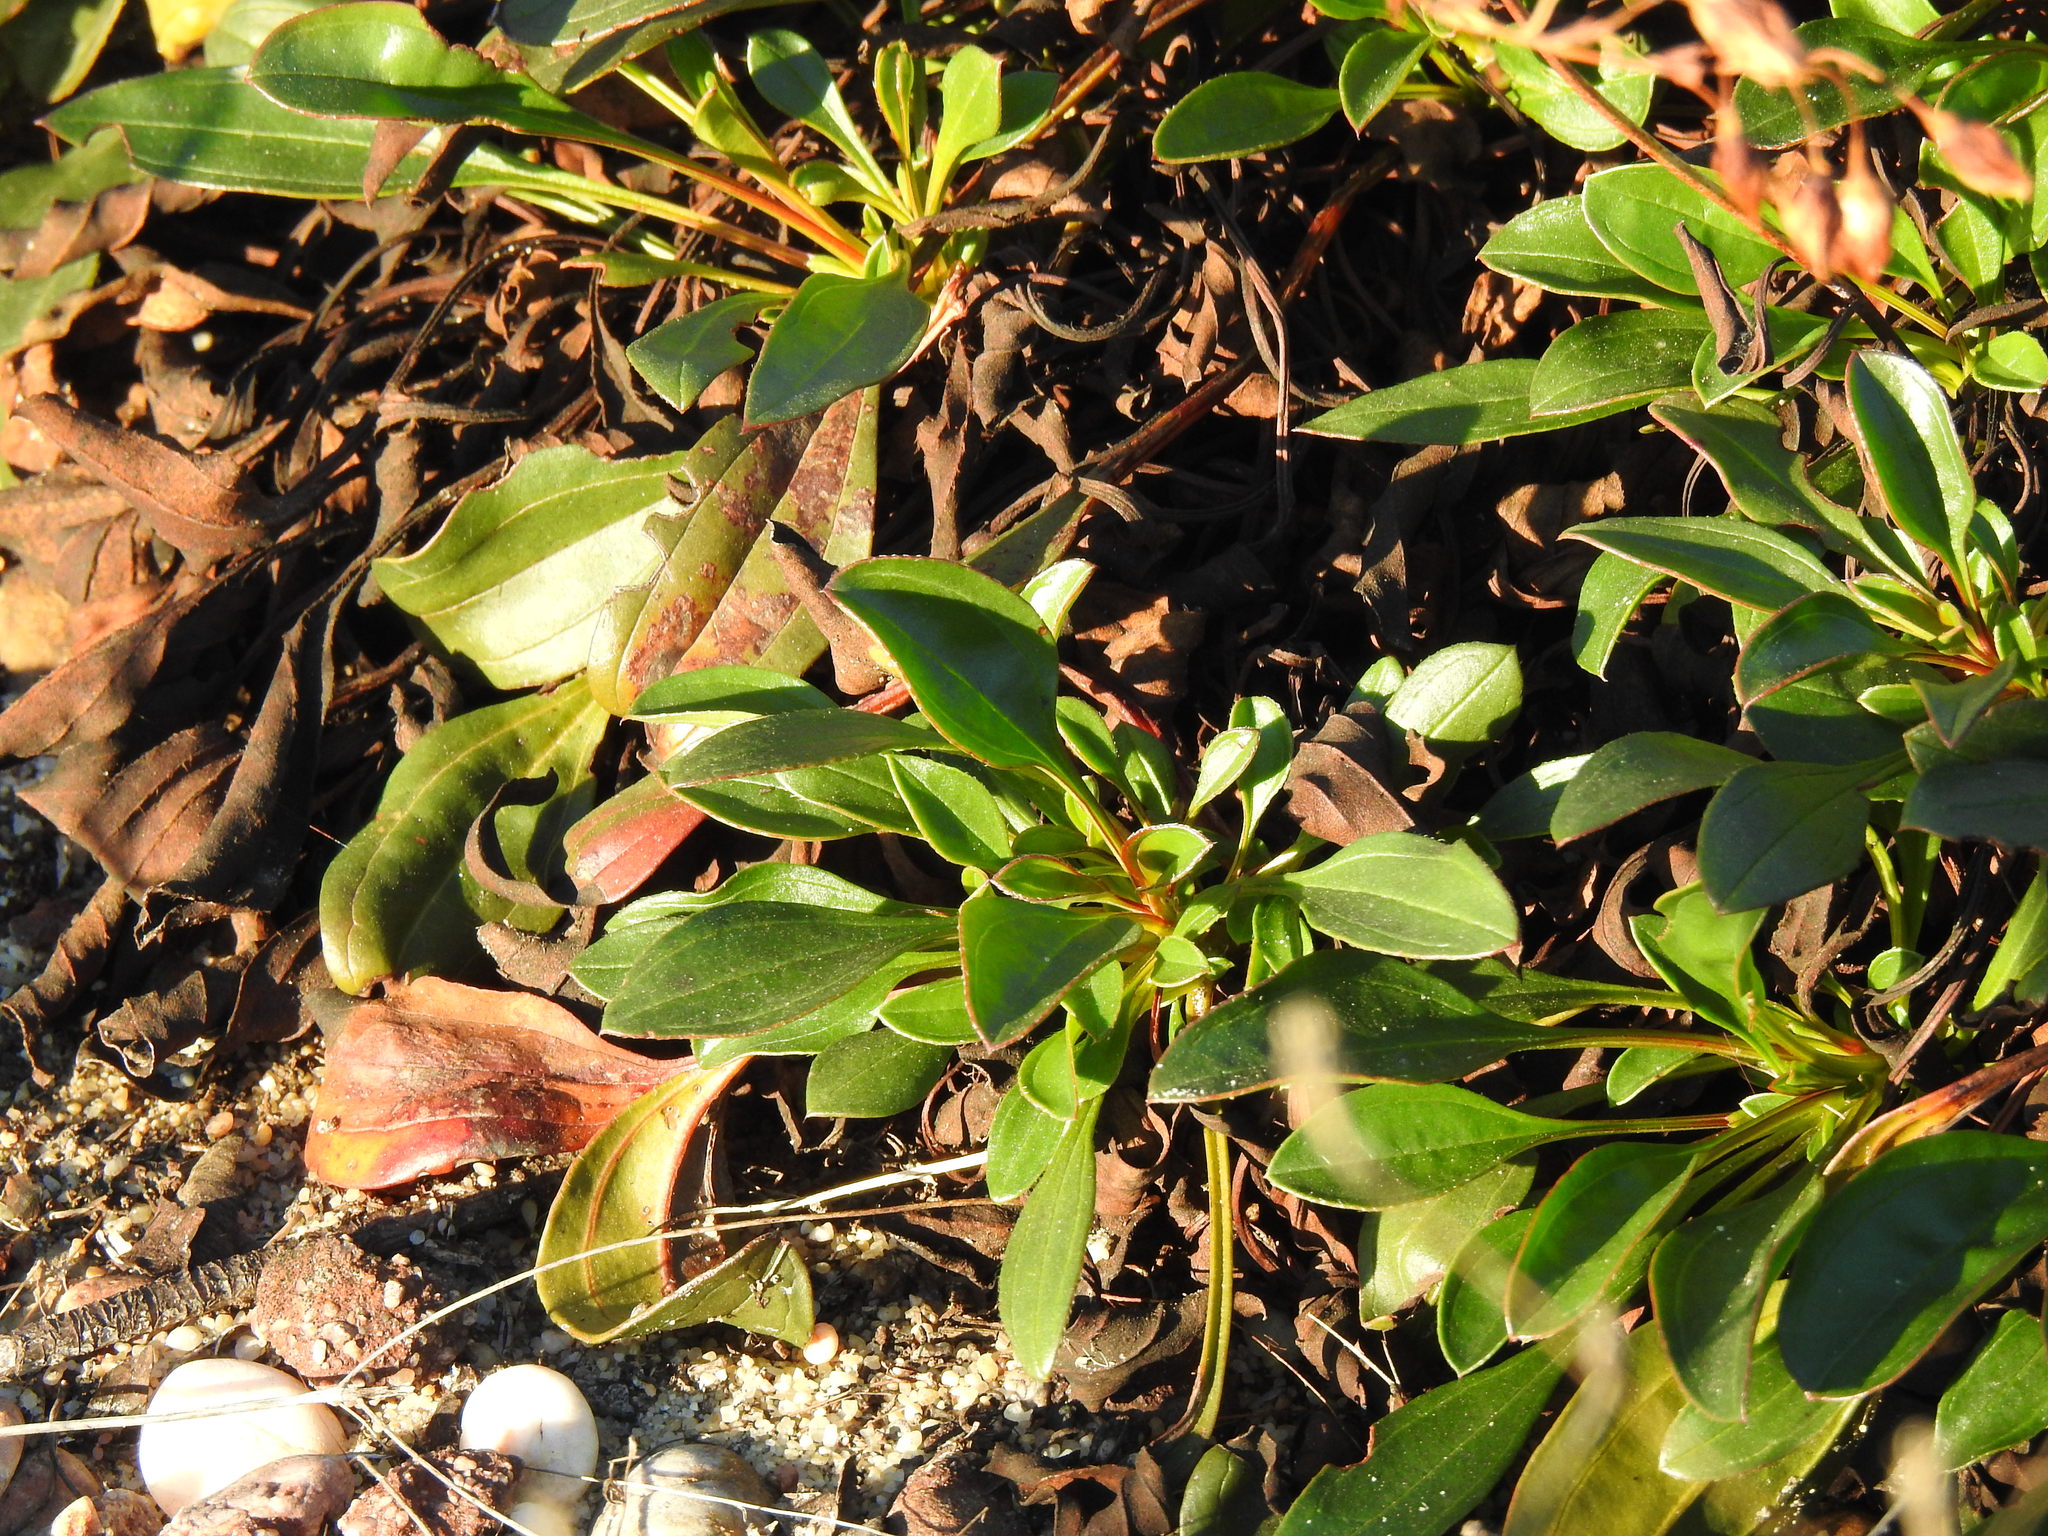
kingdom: Plantae
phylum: Tracheophyta
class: Magnoliopsida
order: Malvales
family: Cistaceae
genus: Tuberaria
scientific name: Tuberaria globulariifolia
